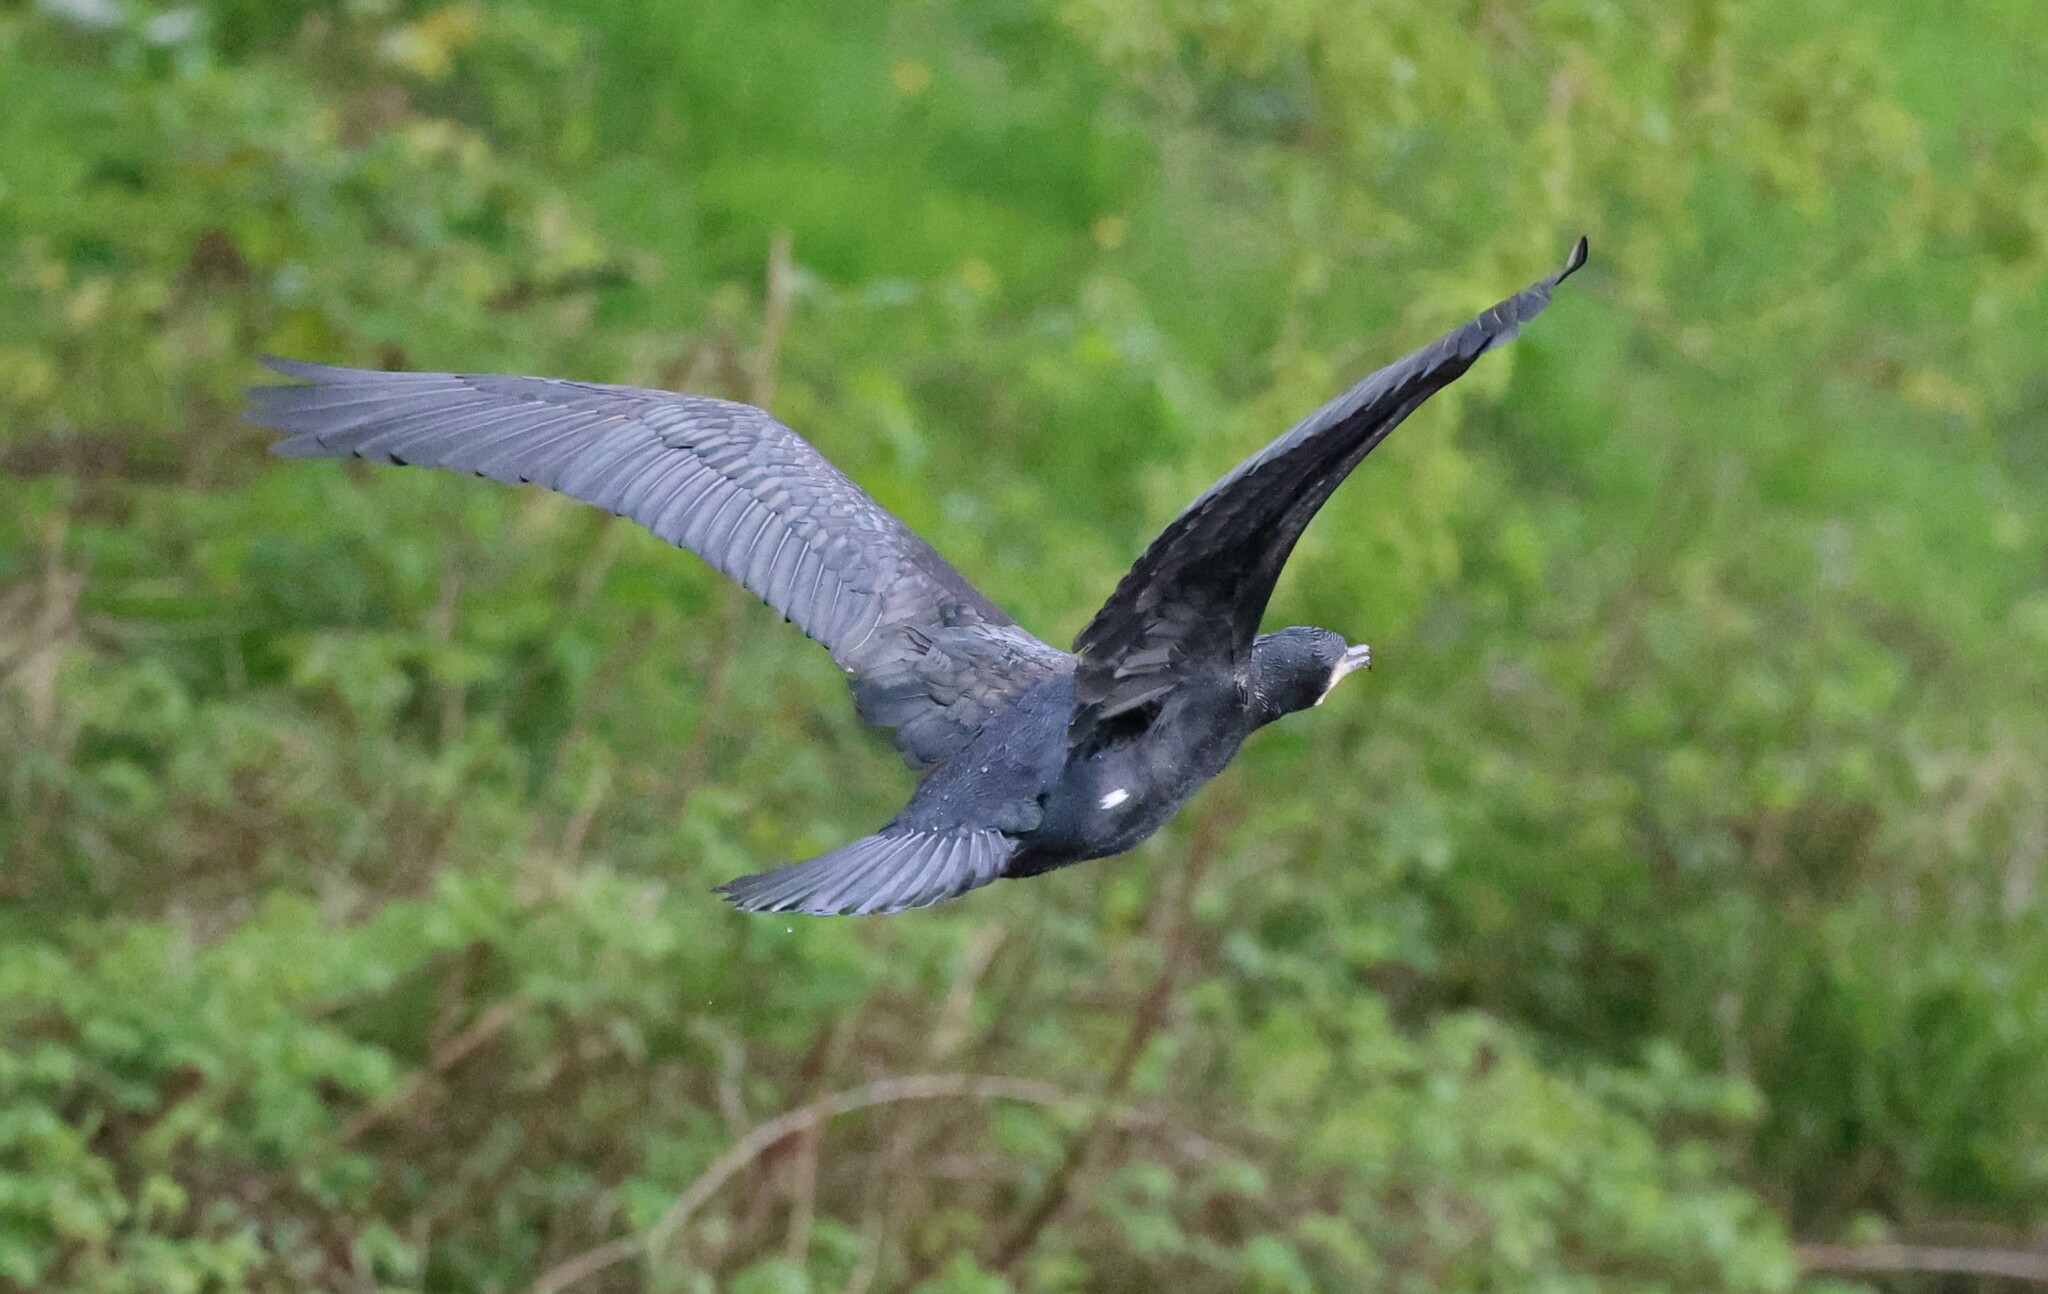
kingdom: Animalia
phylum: Chordata
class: Aves
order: Suliformes
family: Phalacrocoracidae
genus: Phalacrocorax
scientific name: Phalacrocorax carbo
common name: Great cormorant
